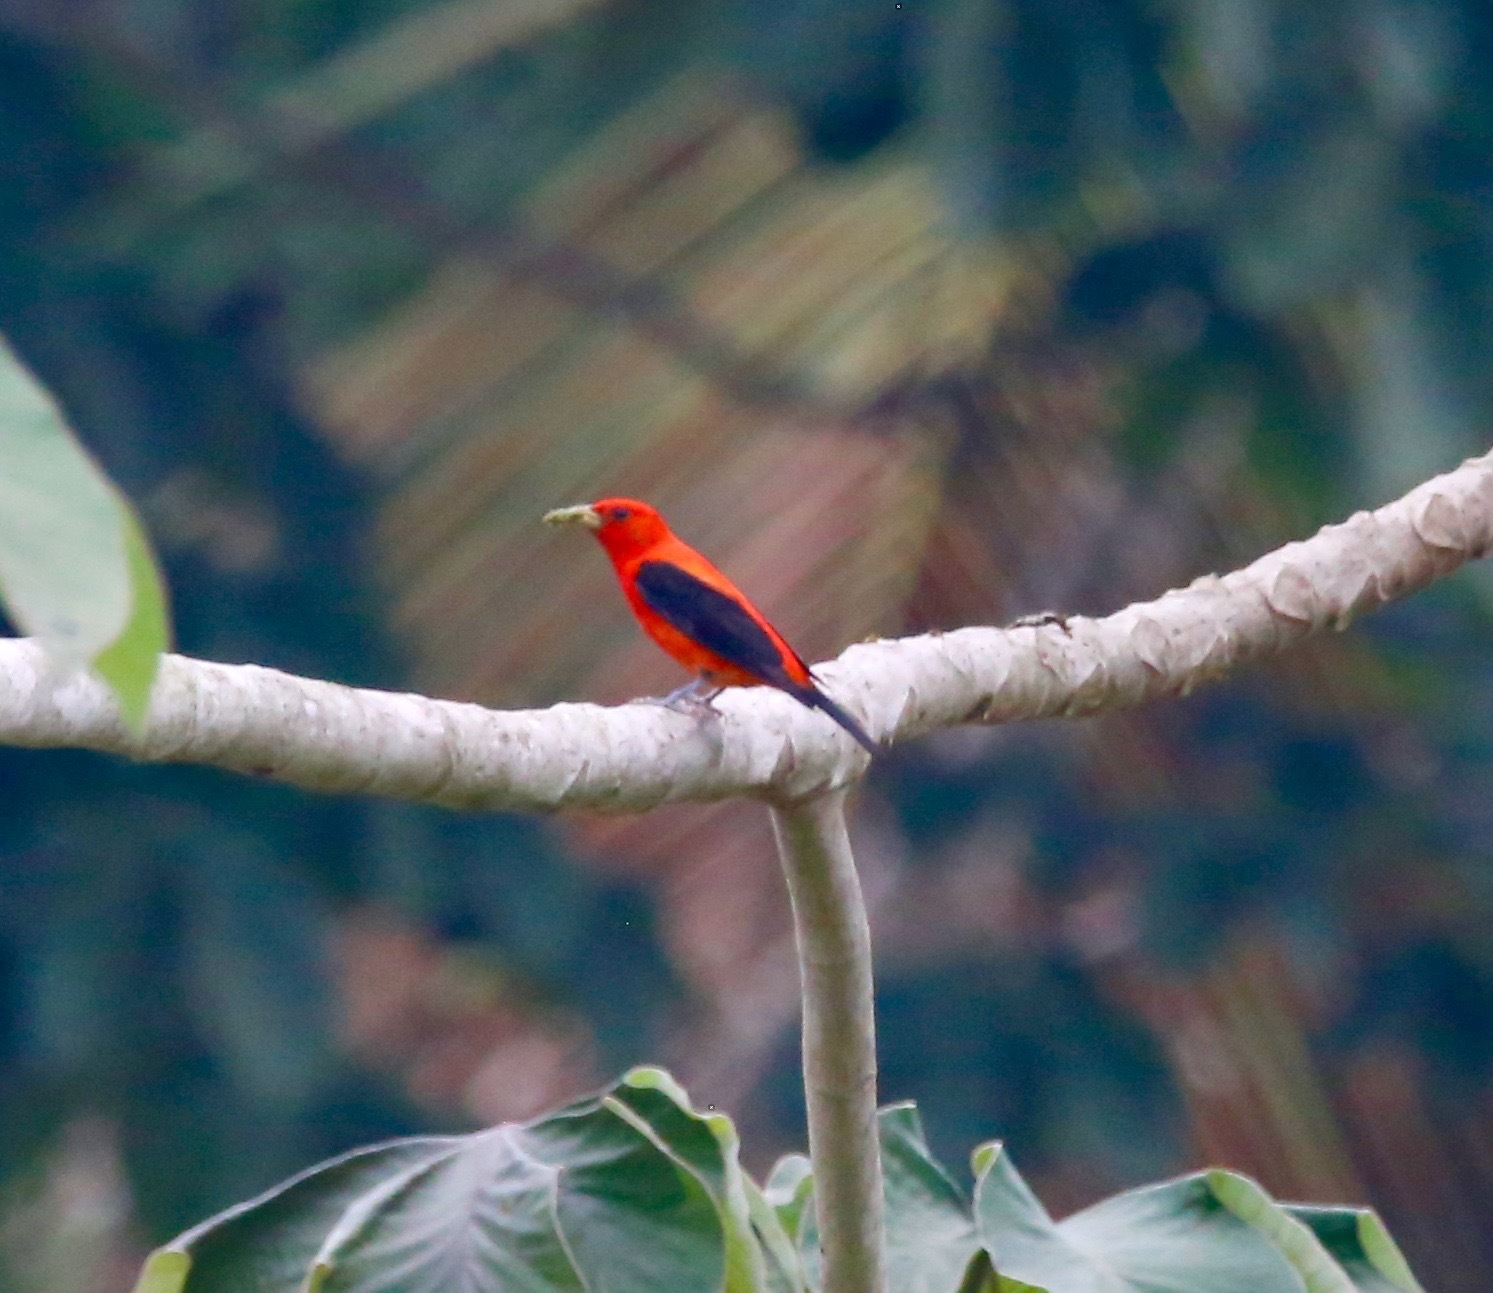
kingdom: Animalia
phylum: Chordata
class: Aves
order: Passeriformes
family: Cardinalidae
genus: Piranga
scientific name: Piranga olivacea
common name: Scarlet tanager
